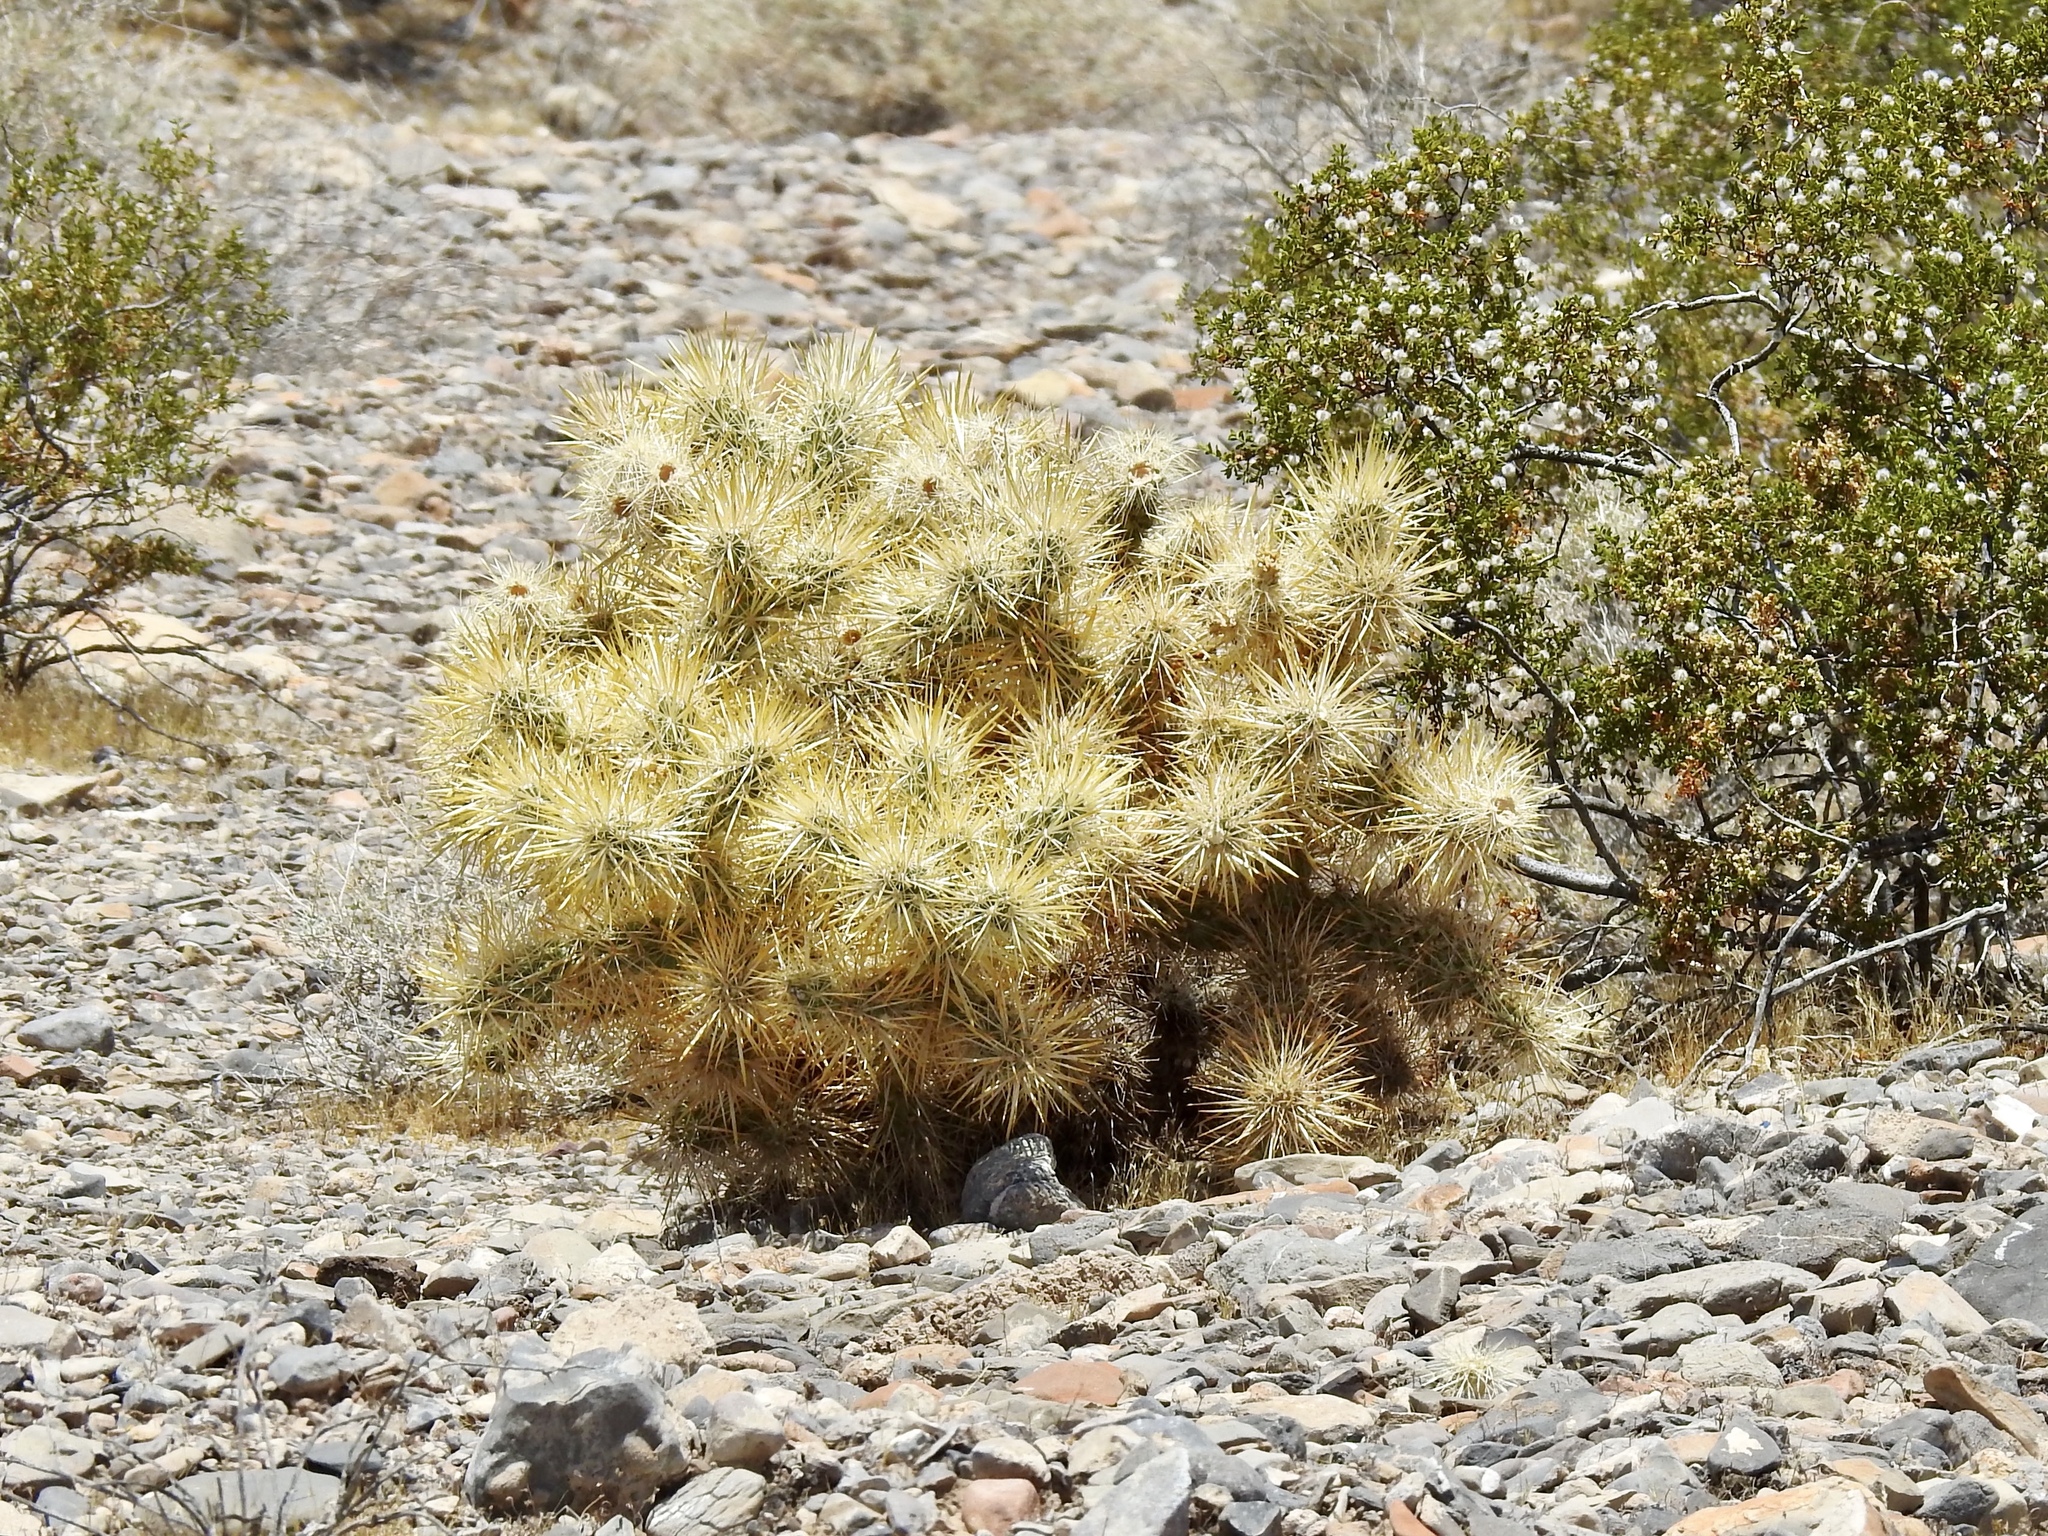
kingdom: Plantae
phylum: Tracheophyta
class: Magnoliopsida
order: Caryophyllales
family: Cactaceae
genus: Cylindropuntia
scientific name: Cylindropuntia echinocarpa
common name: Ground cholla
